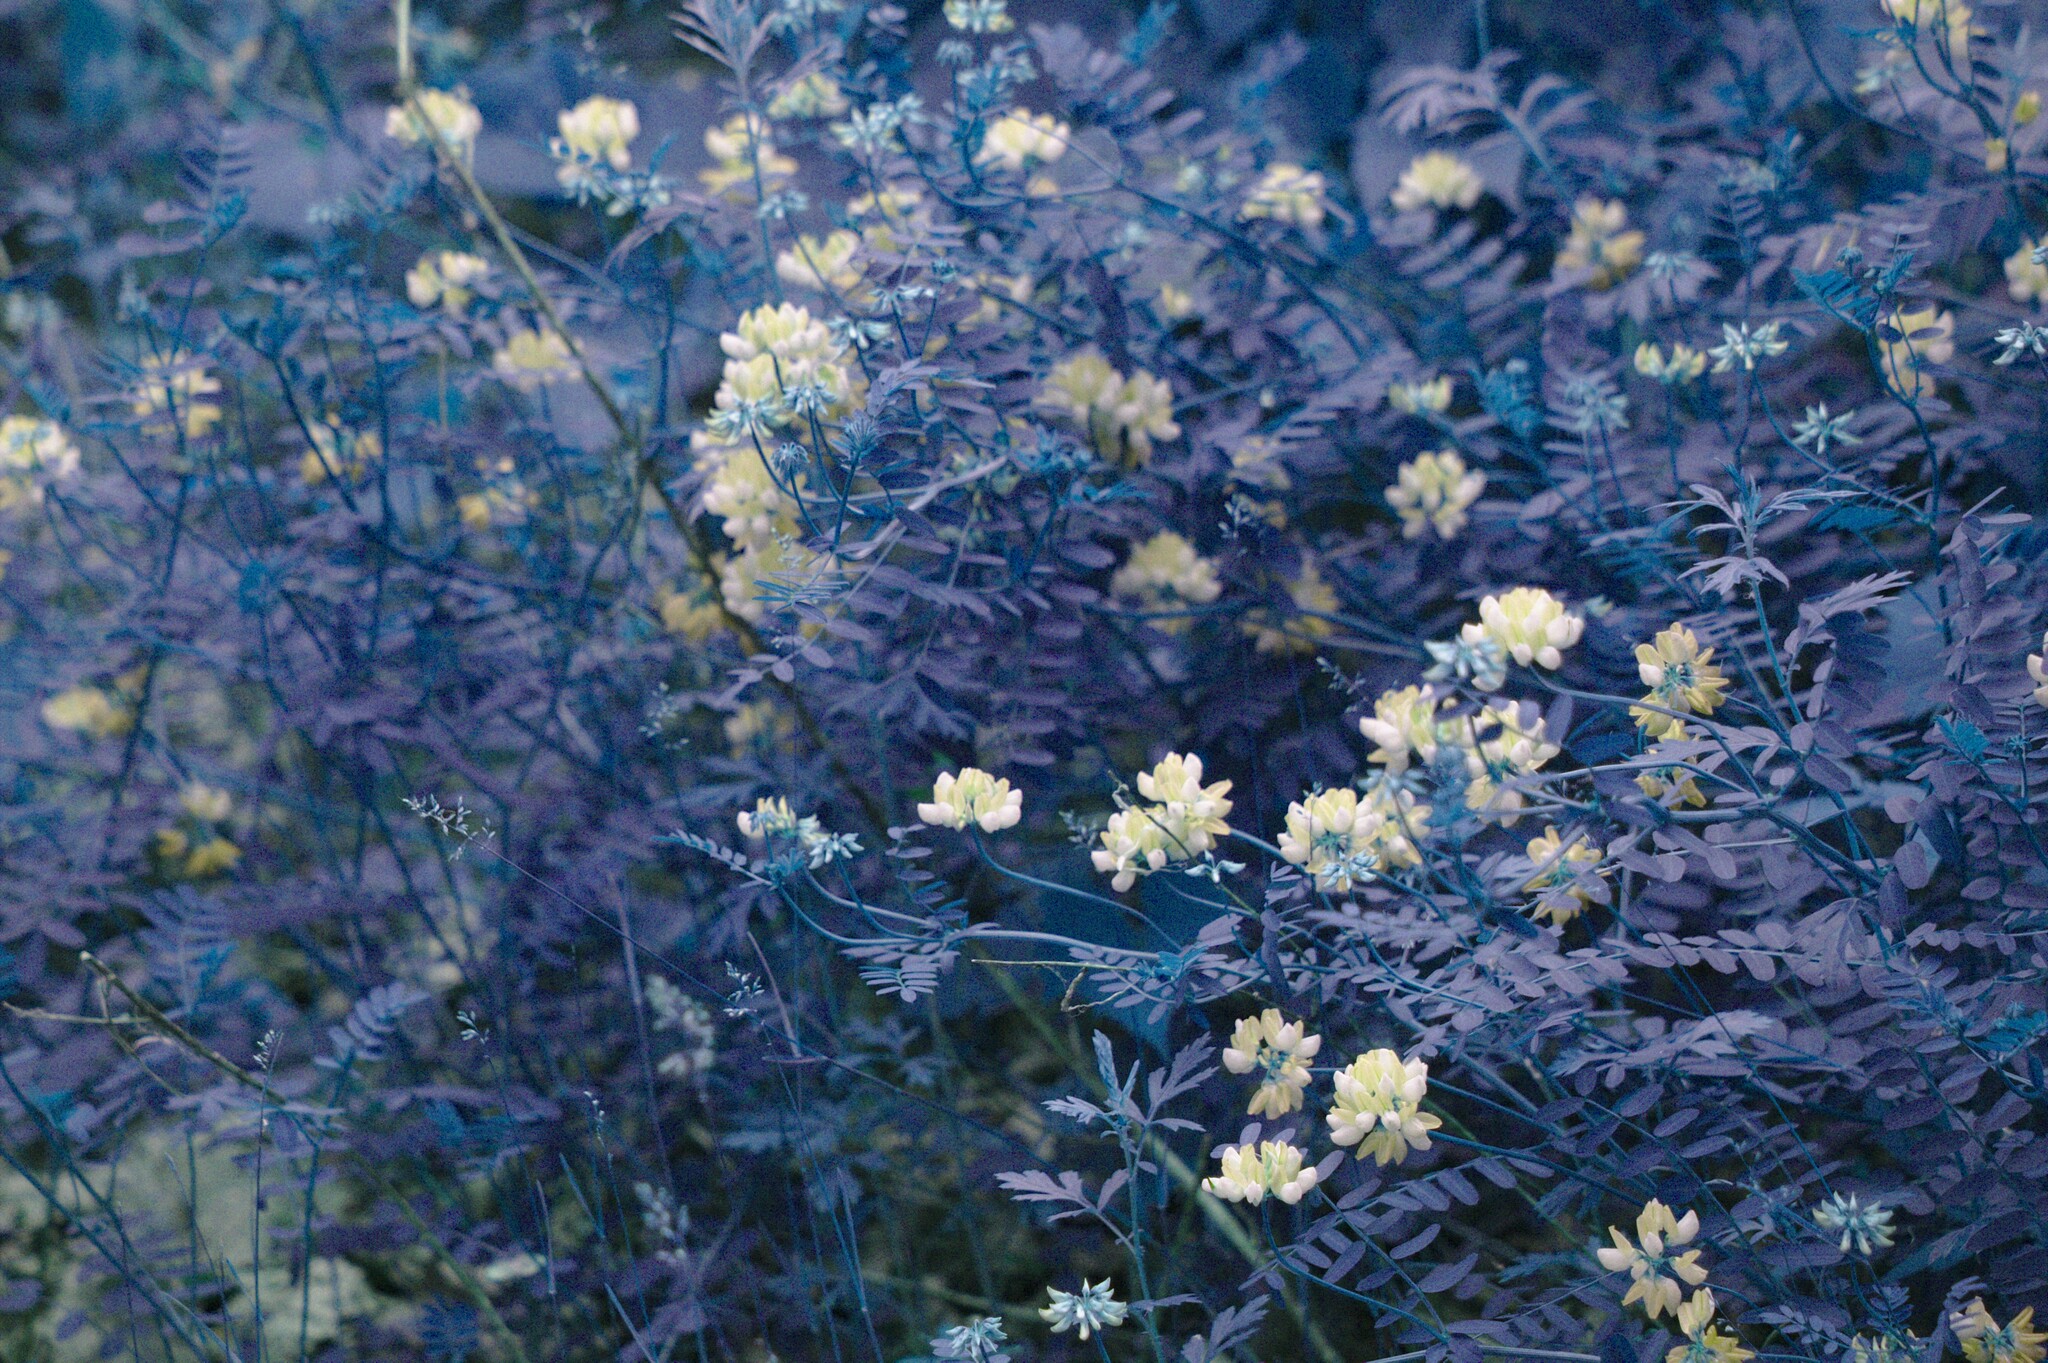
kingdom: Plantae
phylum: Tracheophyta
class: Magnoliopsida
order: Fabales
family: Fabaceae
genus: Coronilla
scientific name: Coronilla varia
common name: Crownvetch
